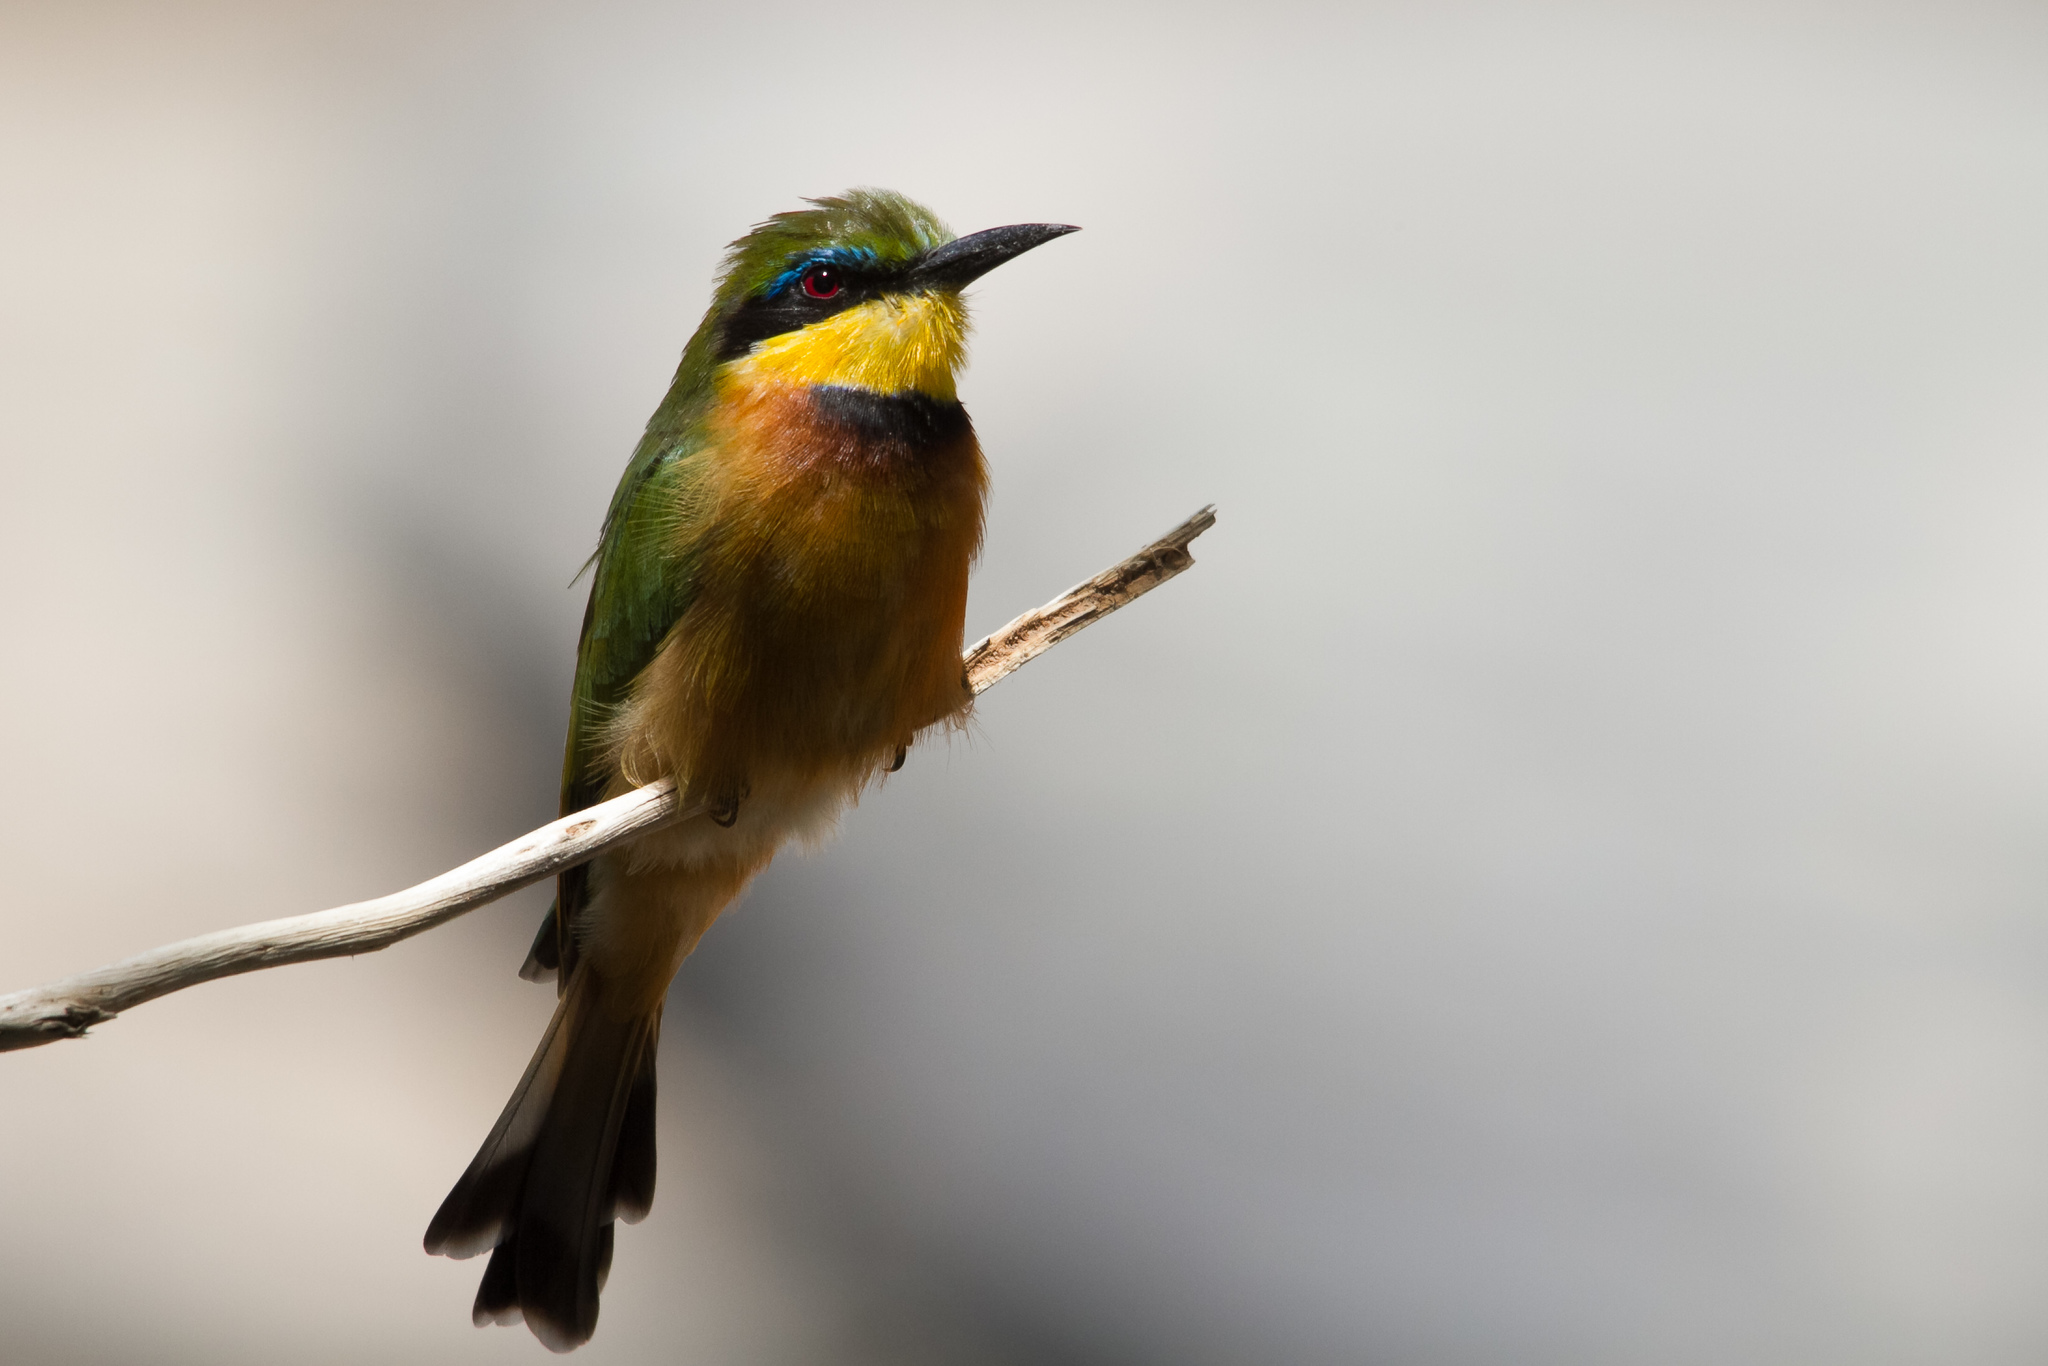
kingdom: Animalia
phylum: Chordata
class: Aves
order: Coraciiformes
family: Meropidae
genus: Merops
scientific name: Merops pusillus
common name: Little bee-eater
